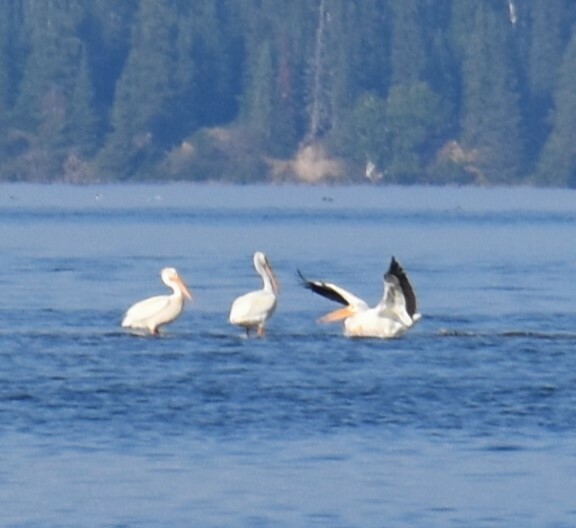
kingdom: Animalia
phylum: Chordata
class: Aves
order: Pelecaniformes
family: Pelecanidae
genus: Pelecanus
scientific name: Pelecanus erythrorhynchos
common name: American white pelican
